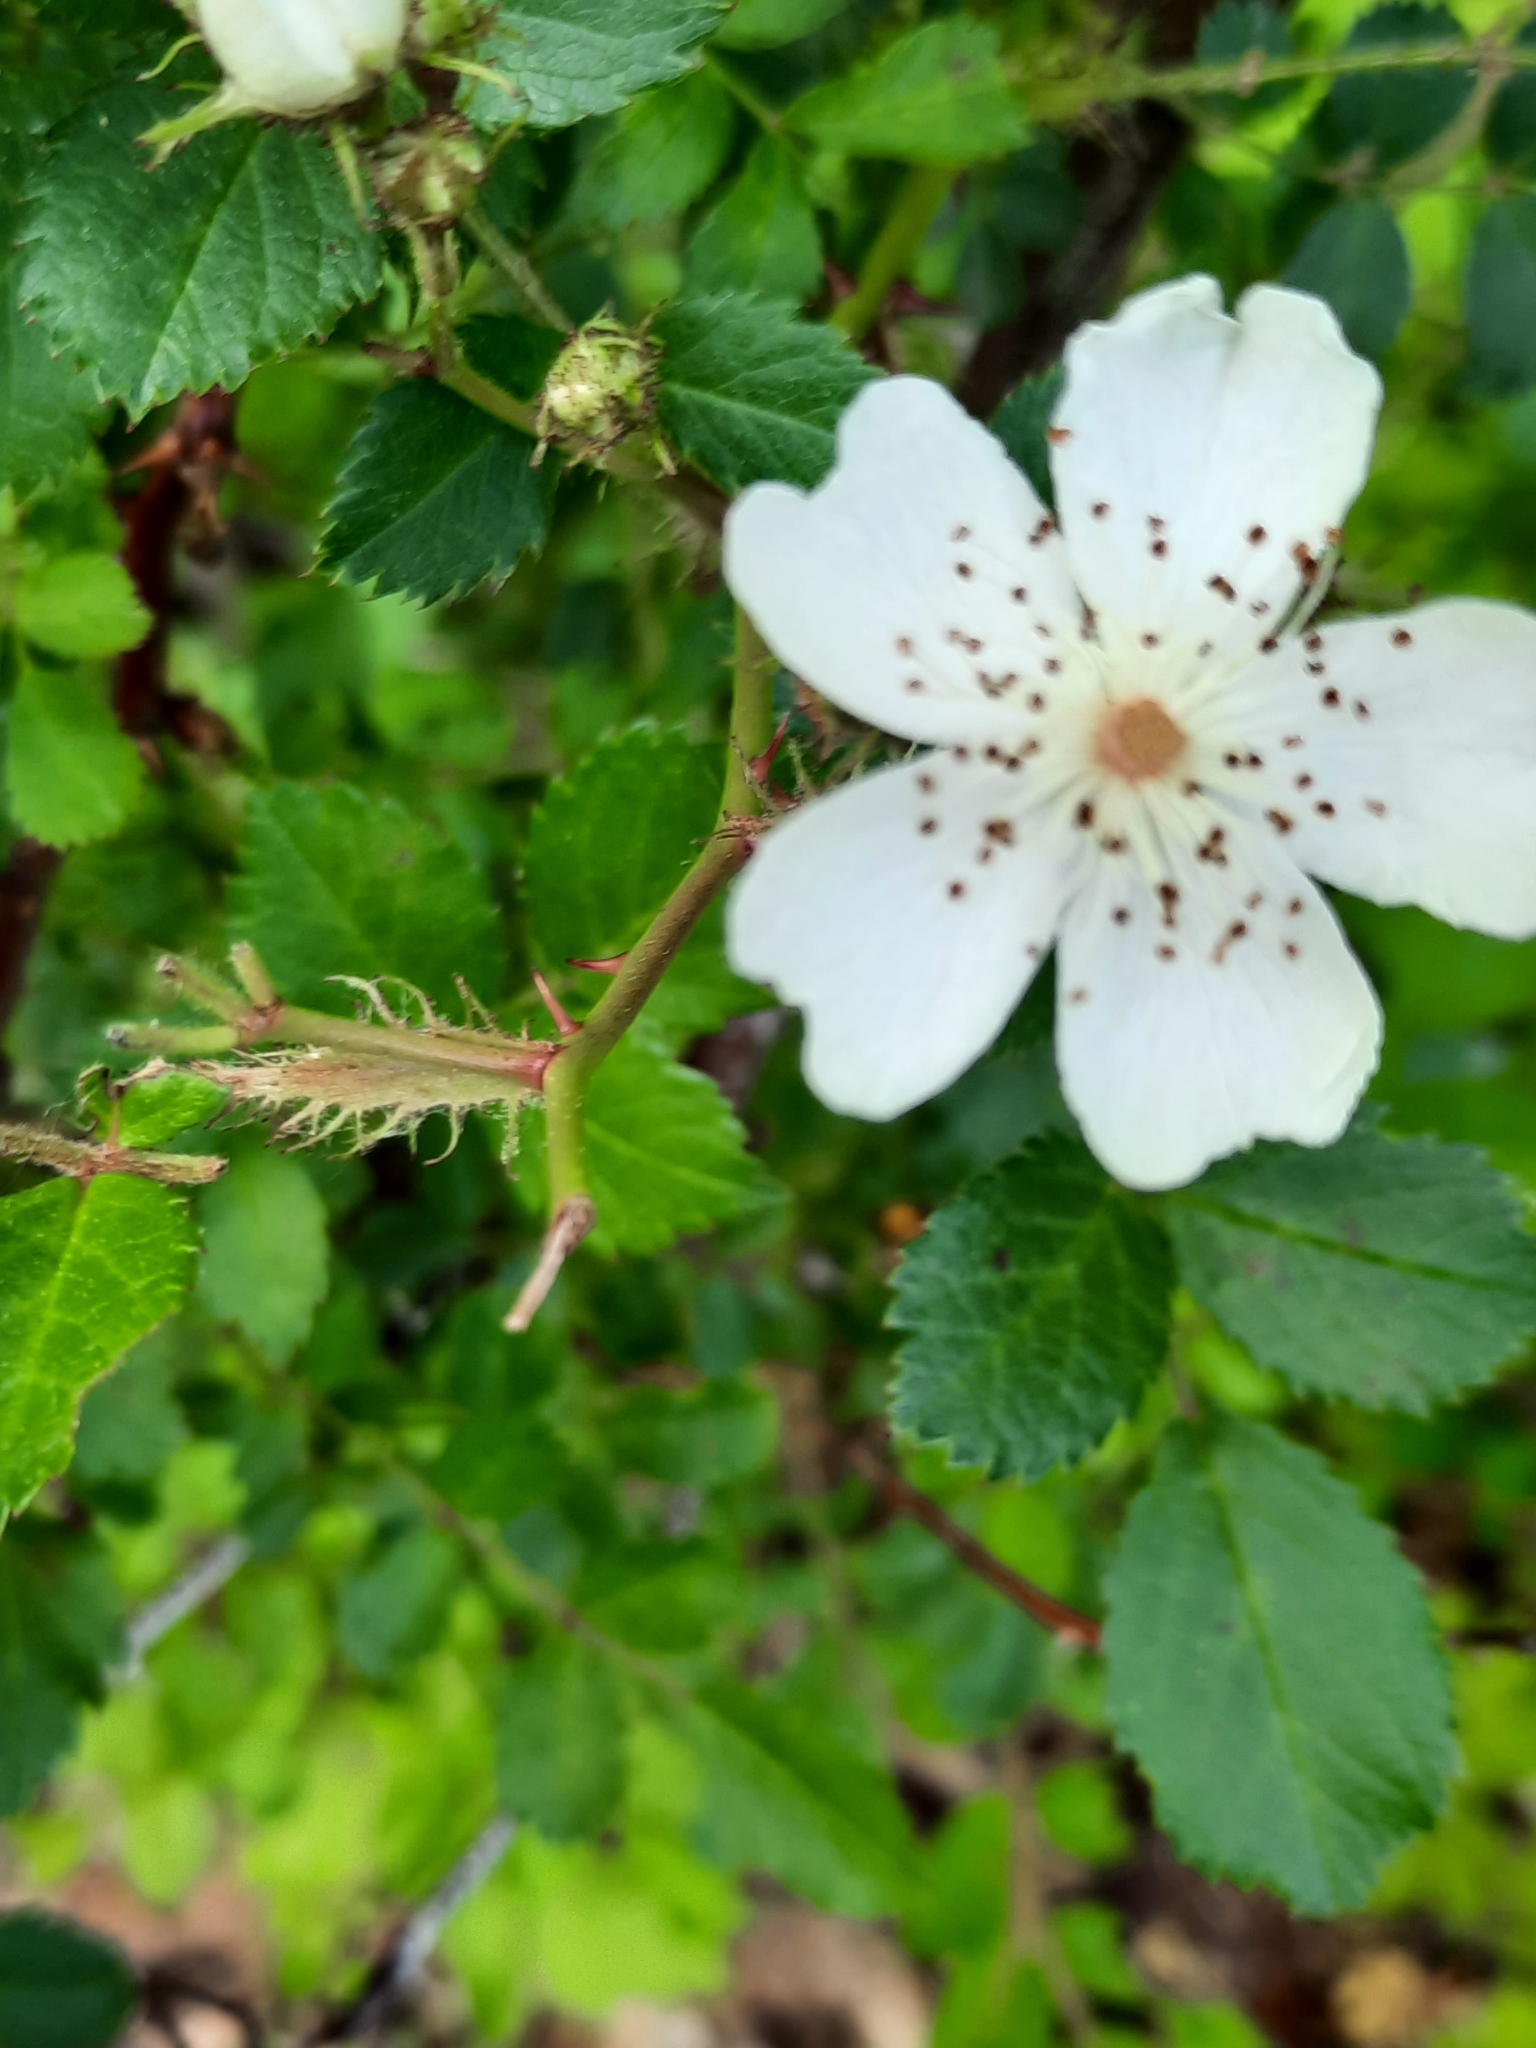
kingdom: Plantae
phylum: Tracheophyta
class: Magnoliopsida
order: Rosales
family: Rosaceae
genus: Rosa
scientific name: Rosa multiflora
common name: Multiflora rose
